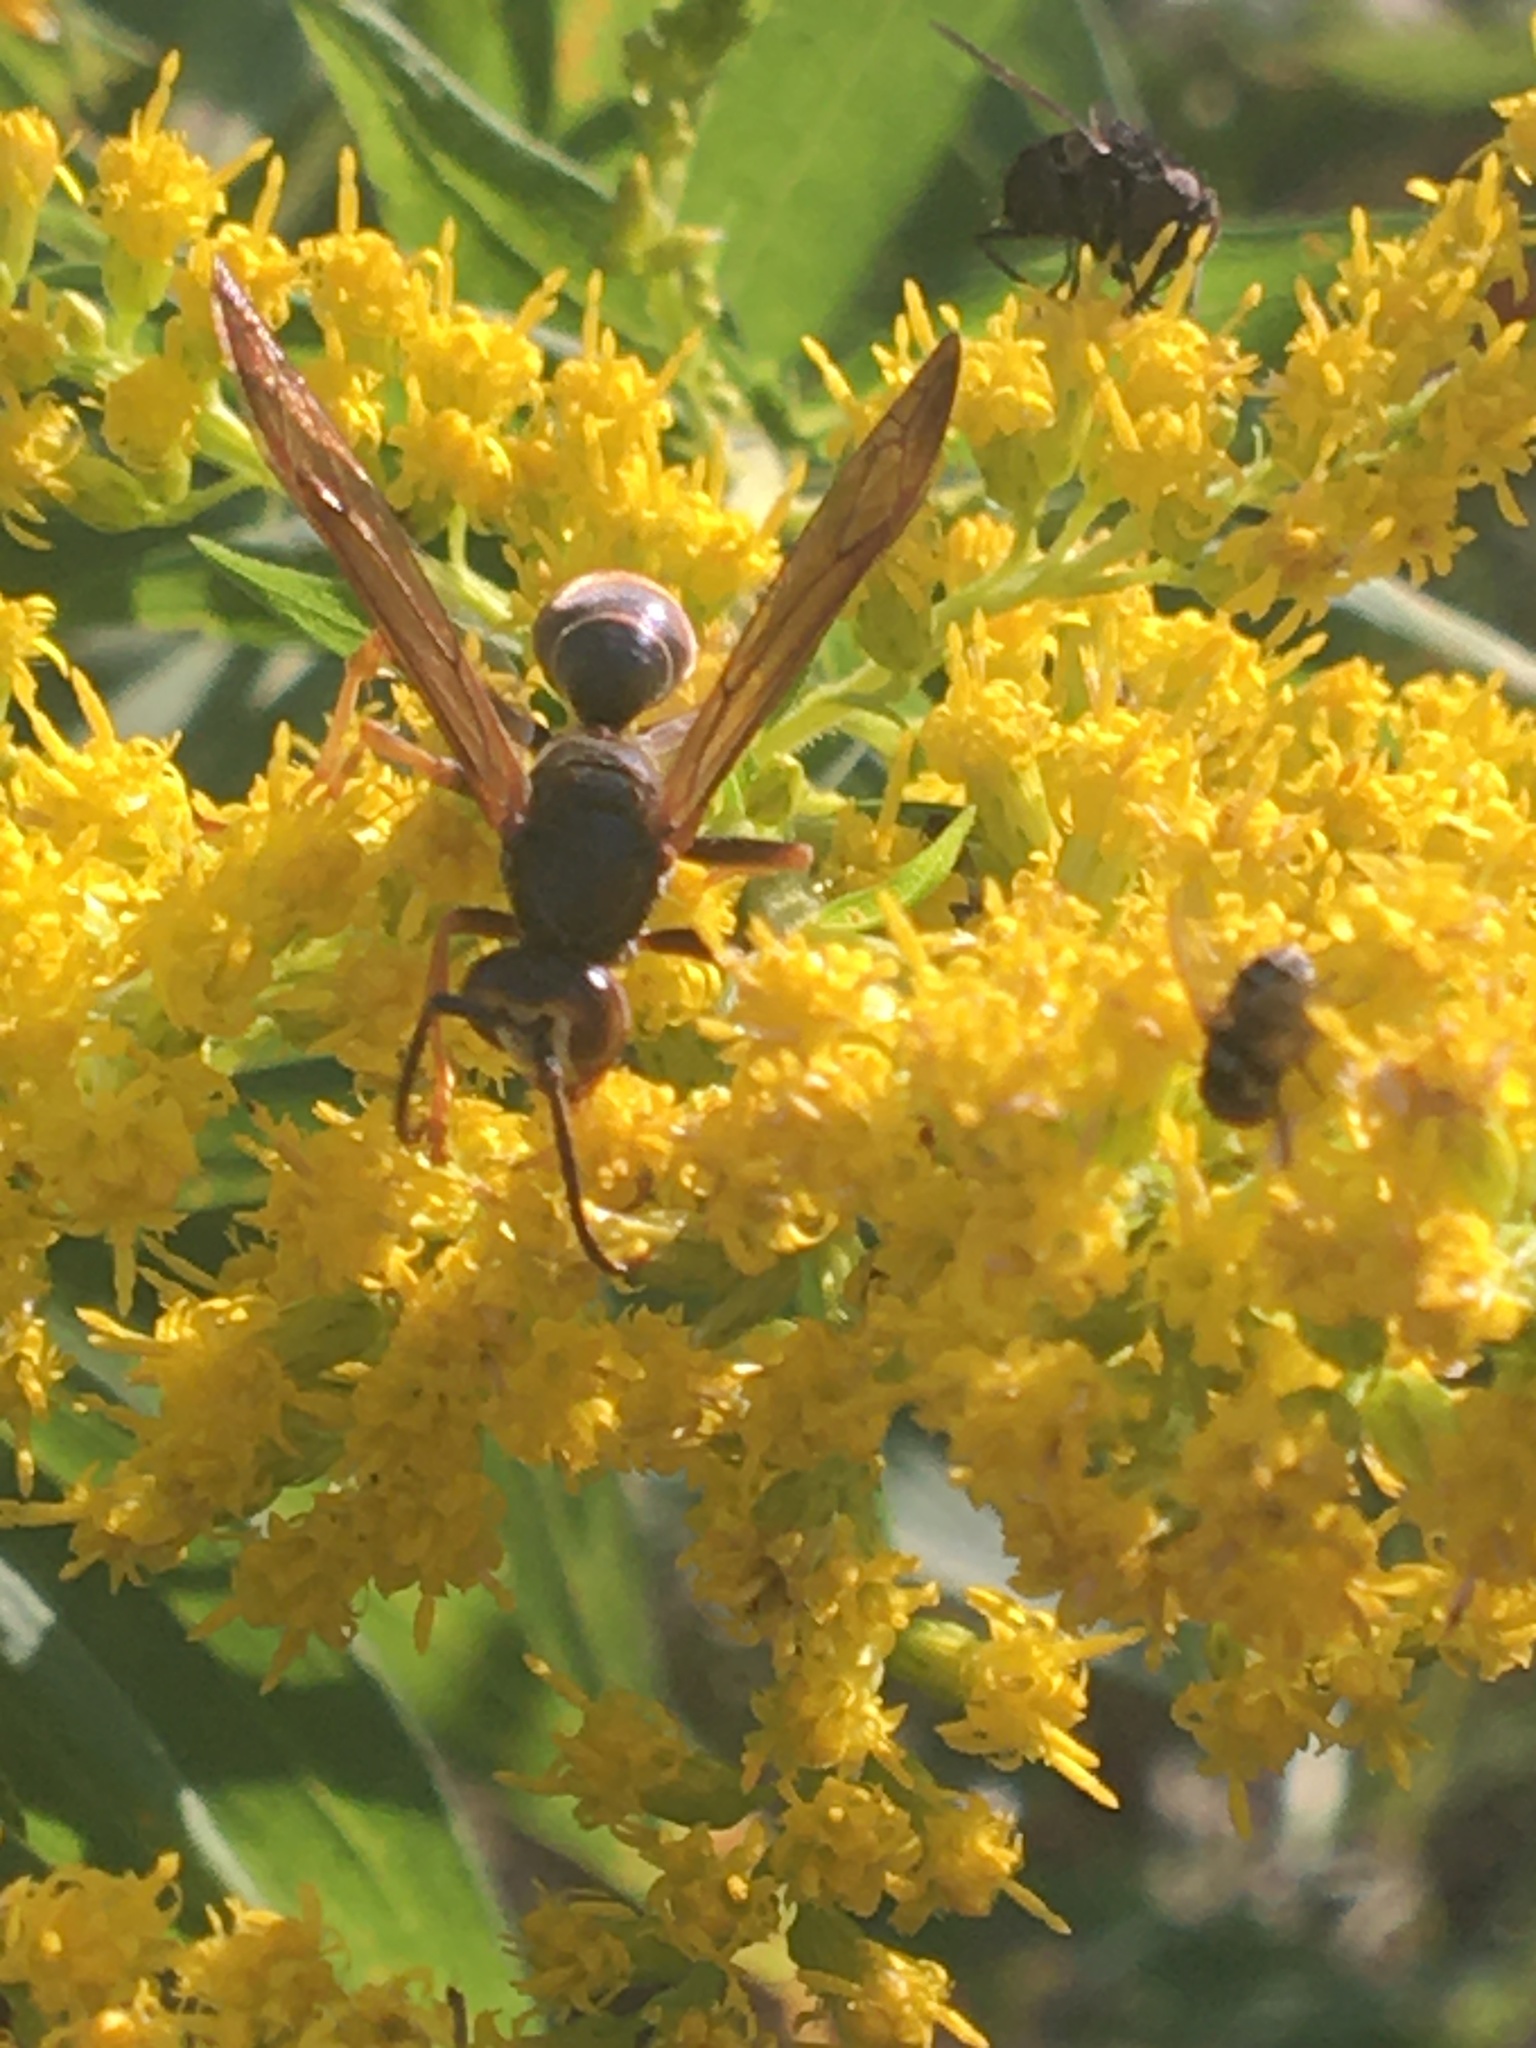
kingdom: Animalia
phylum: Arthropoda
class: Insecta
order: Hymenoptera
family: Eumenidae
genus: Polistes
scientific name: Polistes fuscatus
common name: Dark paper wasp
